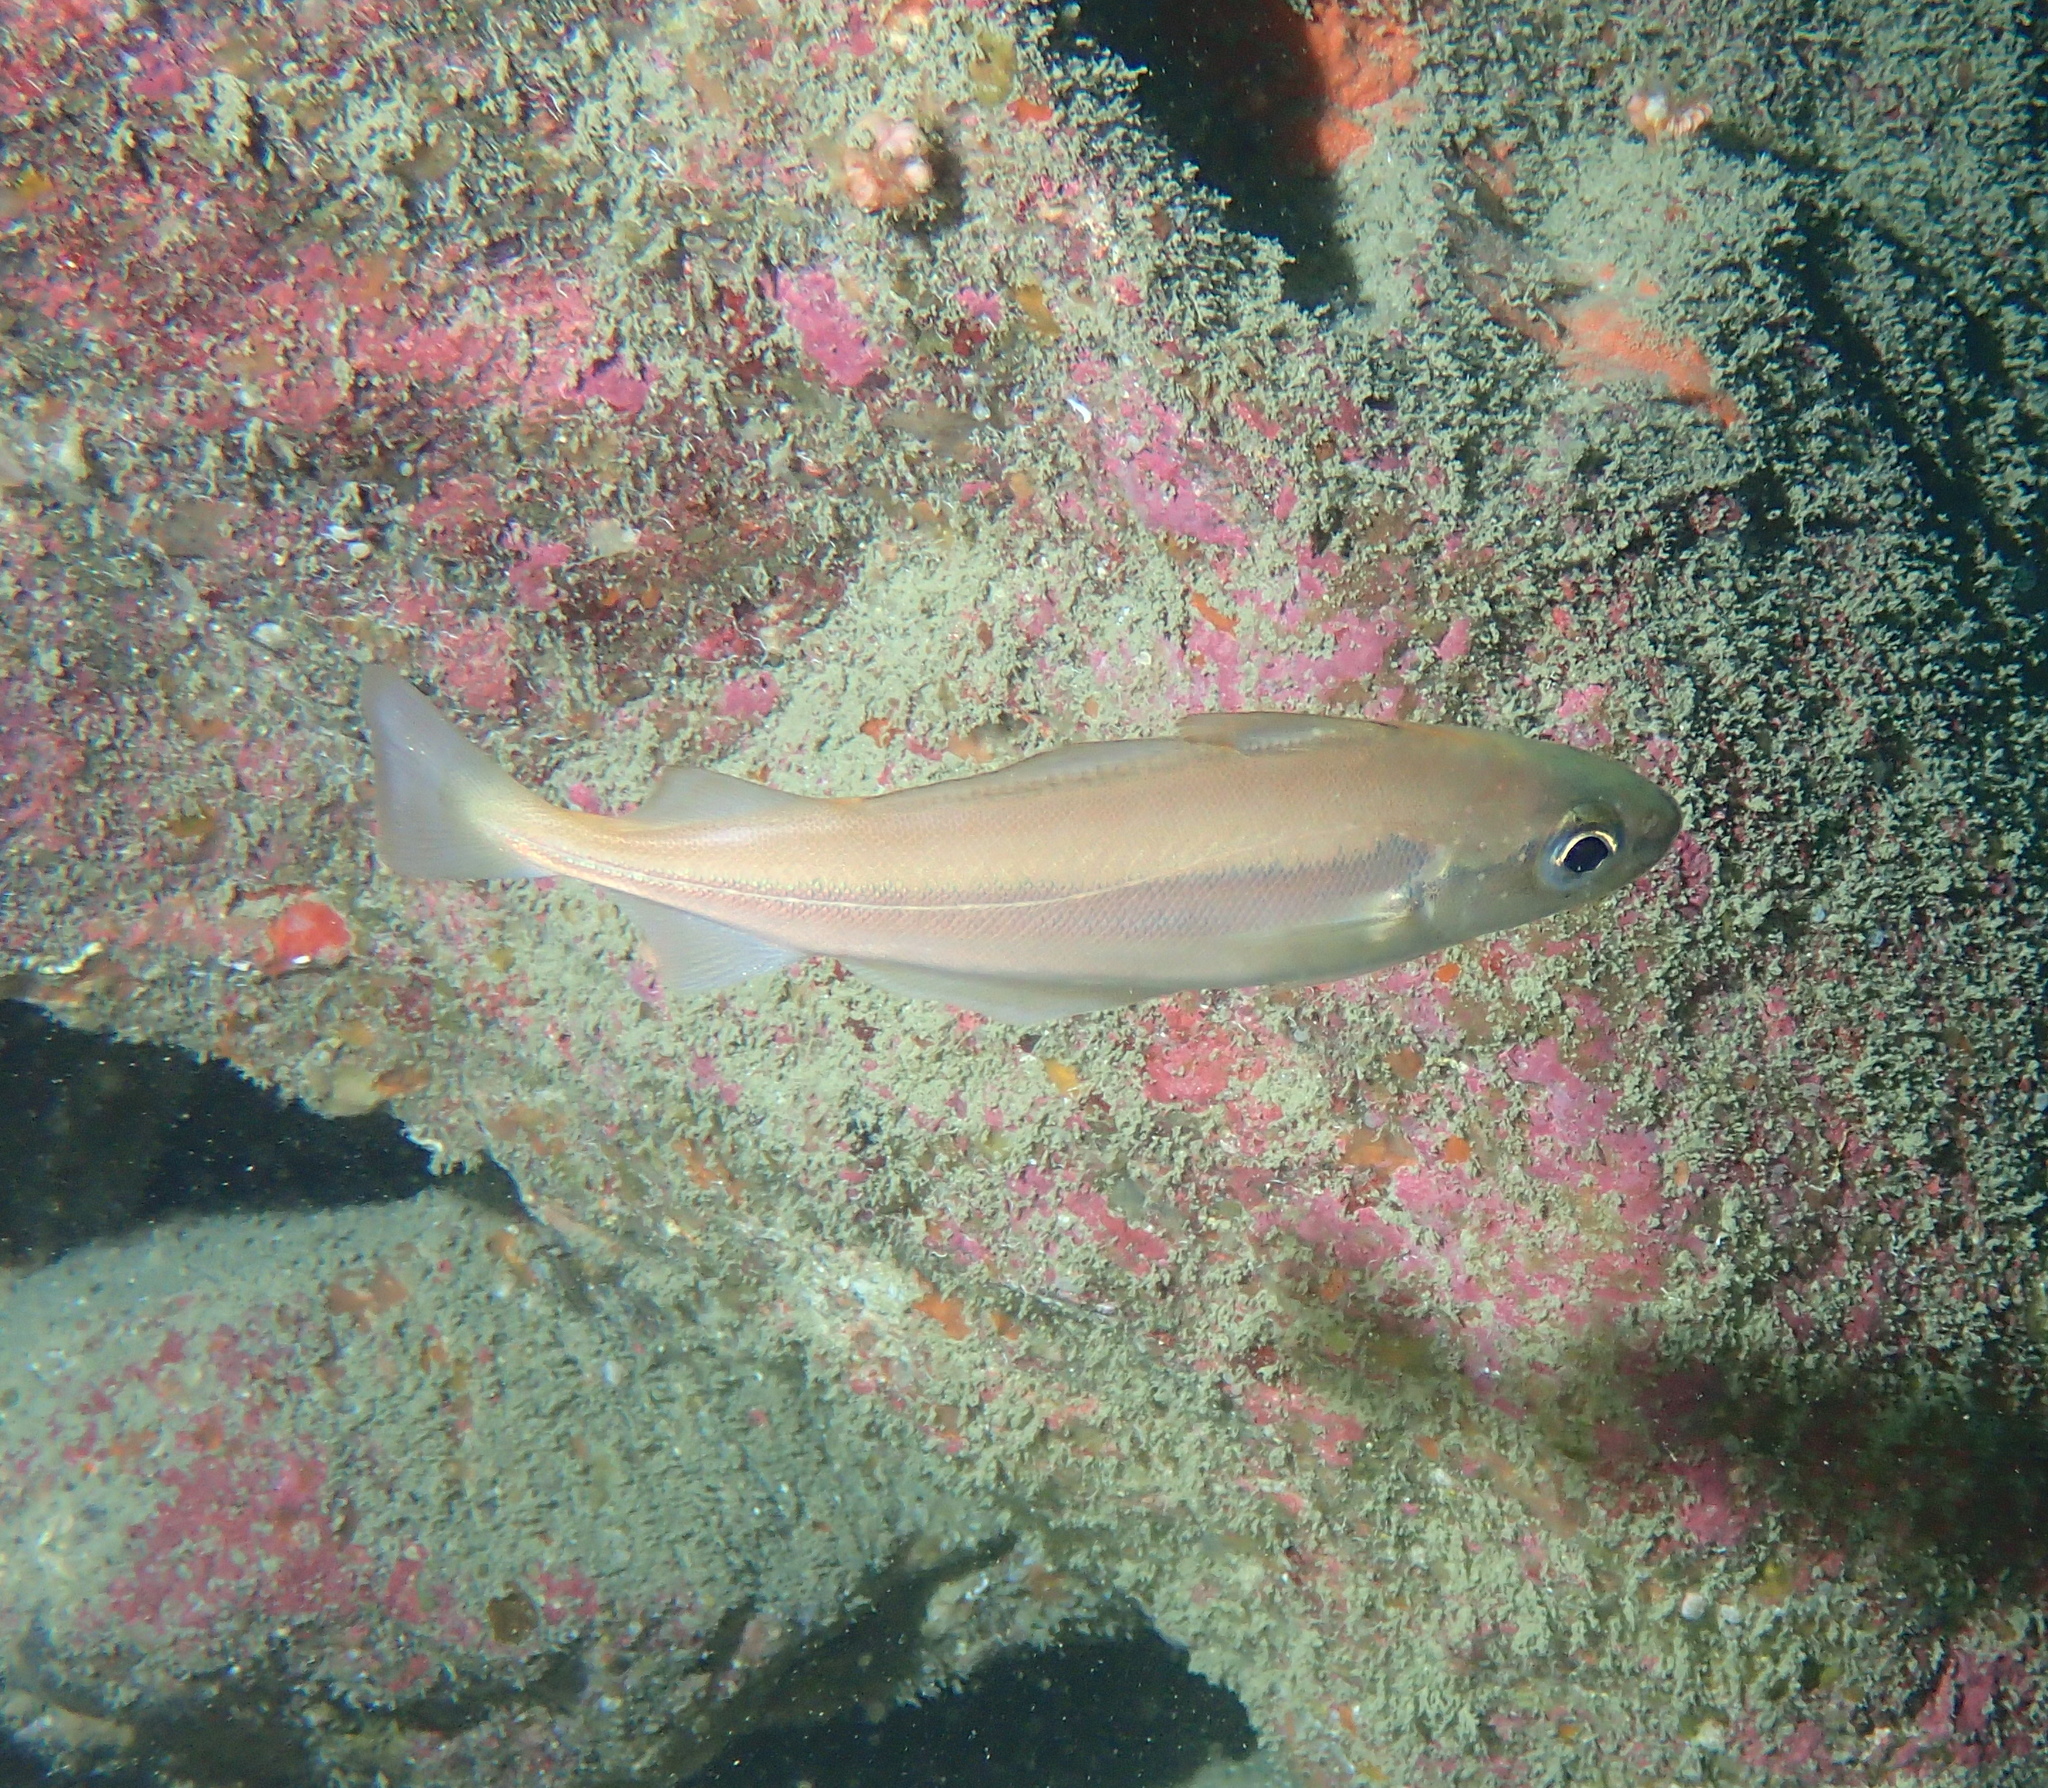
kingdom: Animalia
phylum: Chordata
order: Gadiformes
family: Gadidae
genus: Trisopterus
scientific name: Trisopterus minutus
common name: Poor cod
